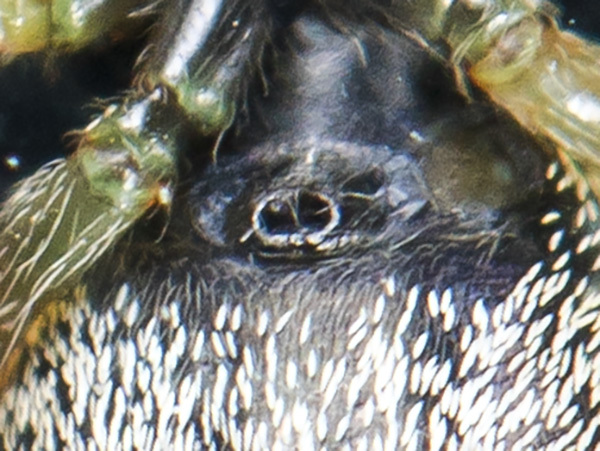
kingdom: Animalia
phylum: Arthropoda
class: Arachnida
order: Araneae
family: Salticidae
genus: Heliophanus
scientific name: Heliophanus curvidens
